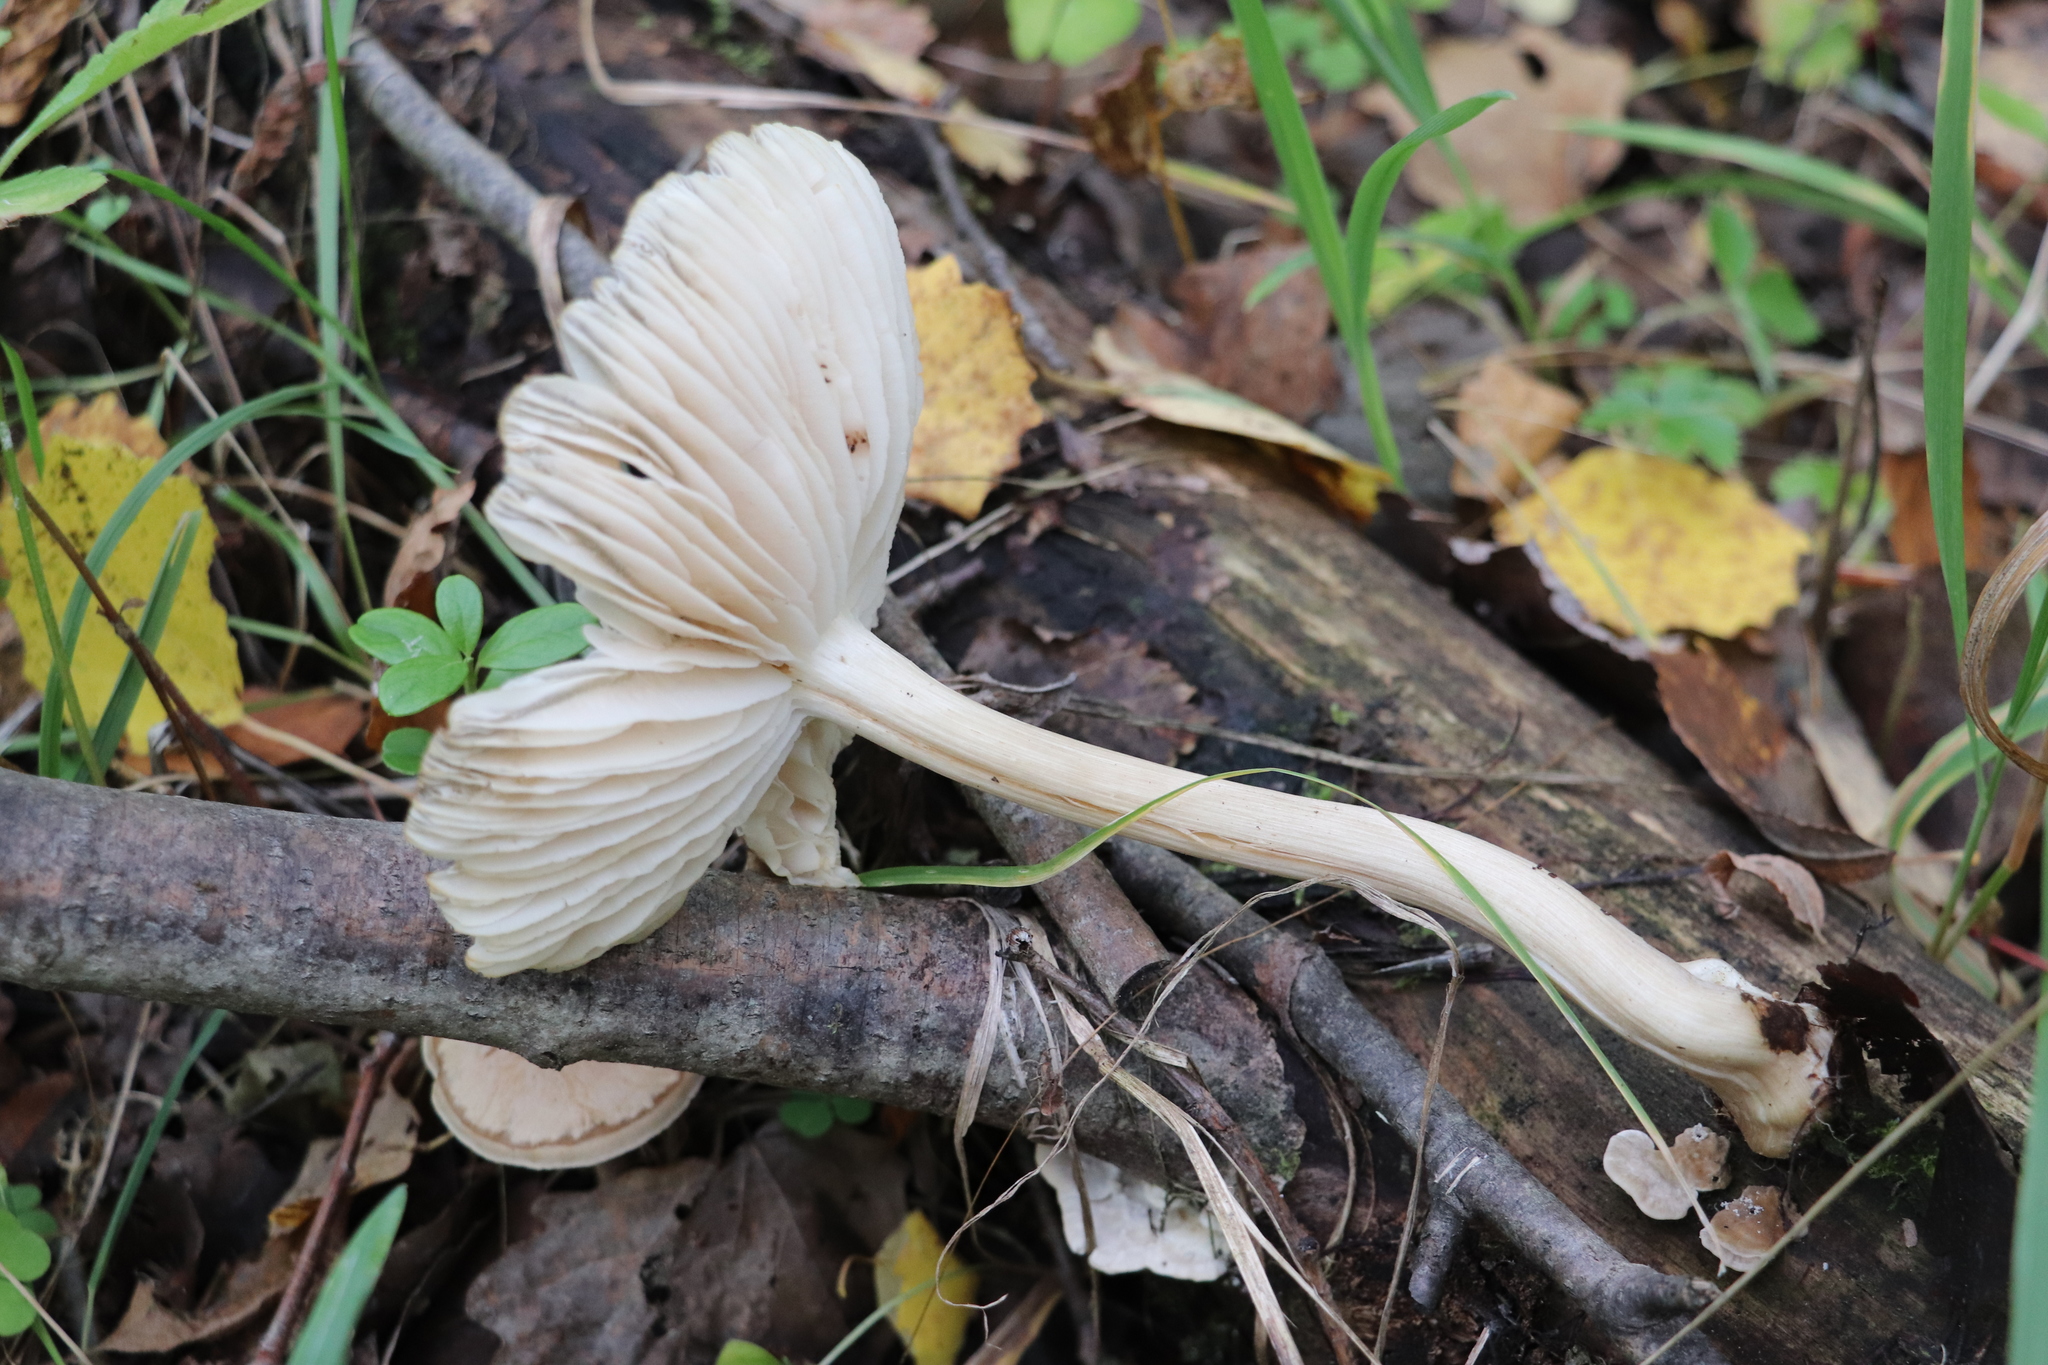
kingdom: Fungi
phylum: Basidiomycota
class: Agaricomycetes
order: Agaricales
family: Tricholomataceae
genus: Megacollybia
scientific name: Megacollybia platyphylla
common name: Whitelaced shank
